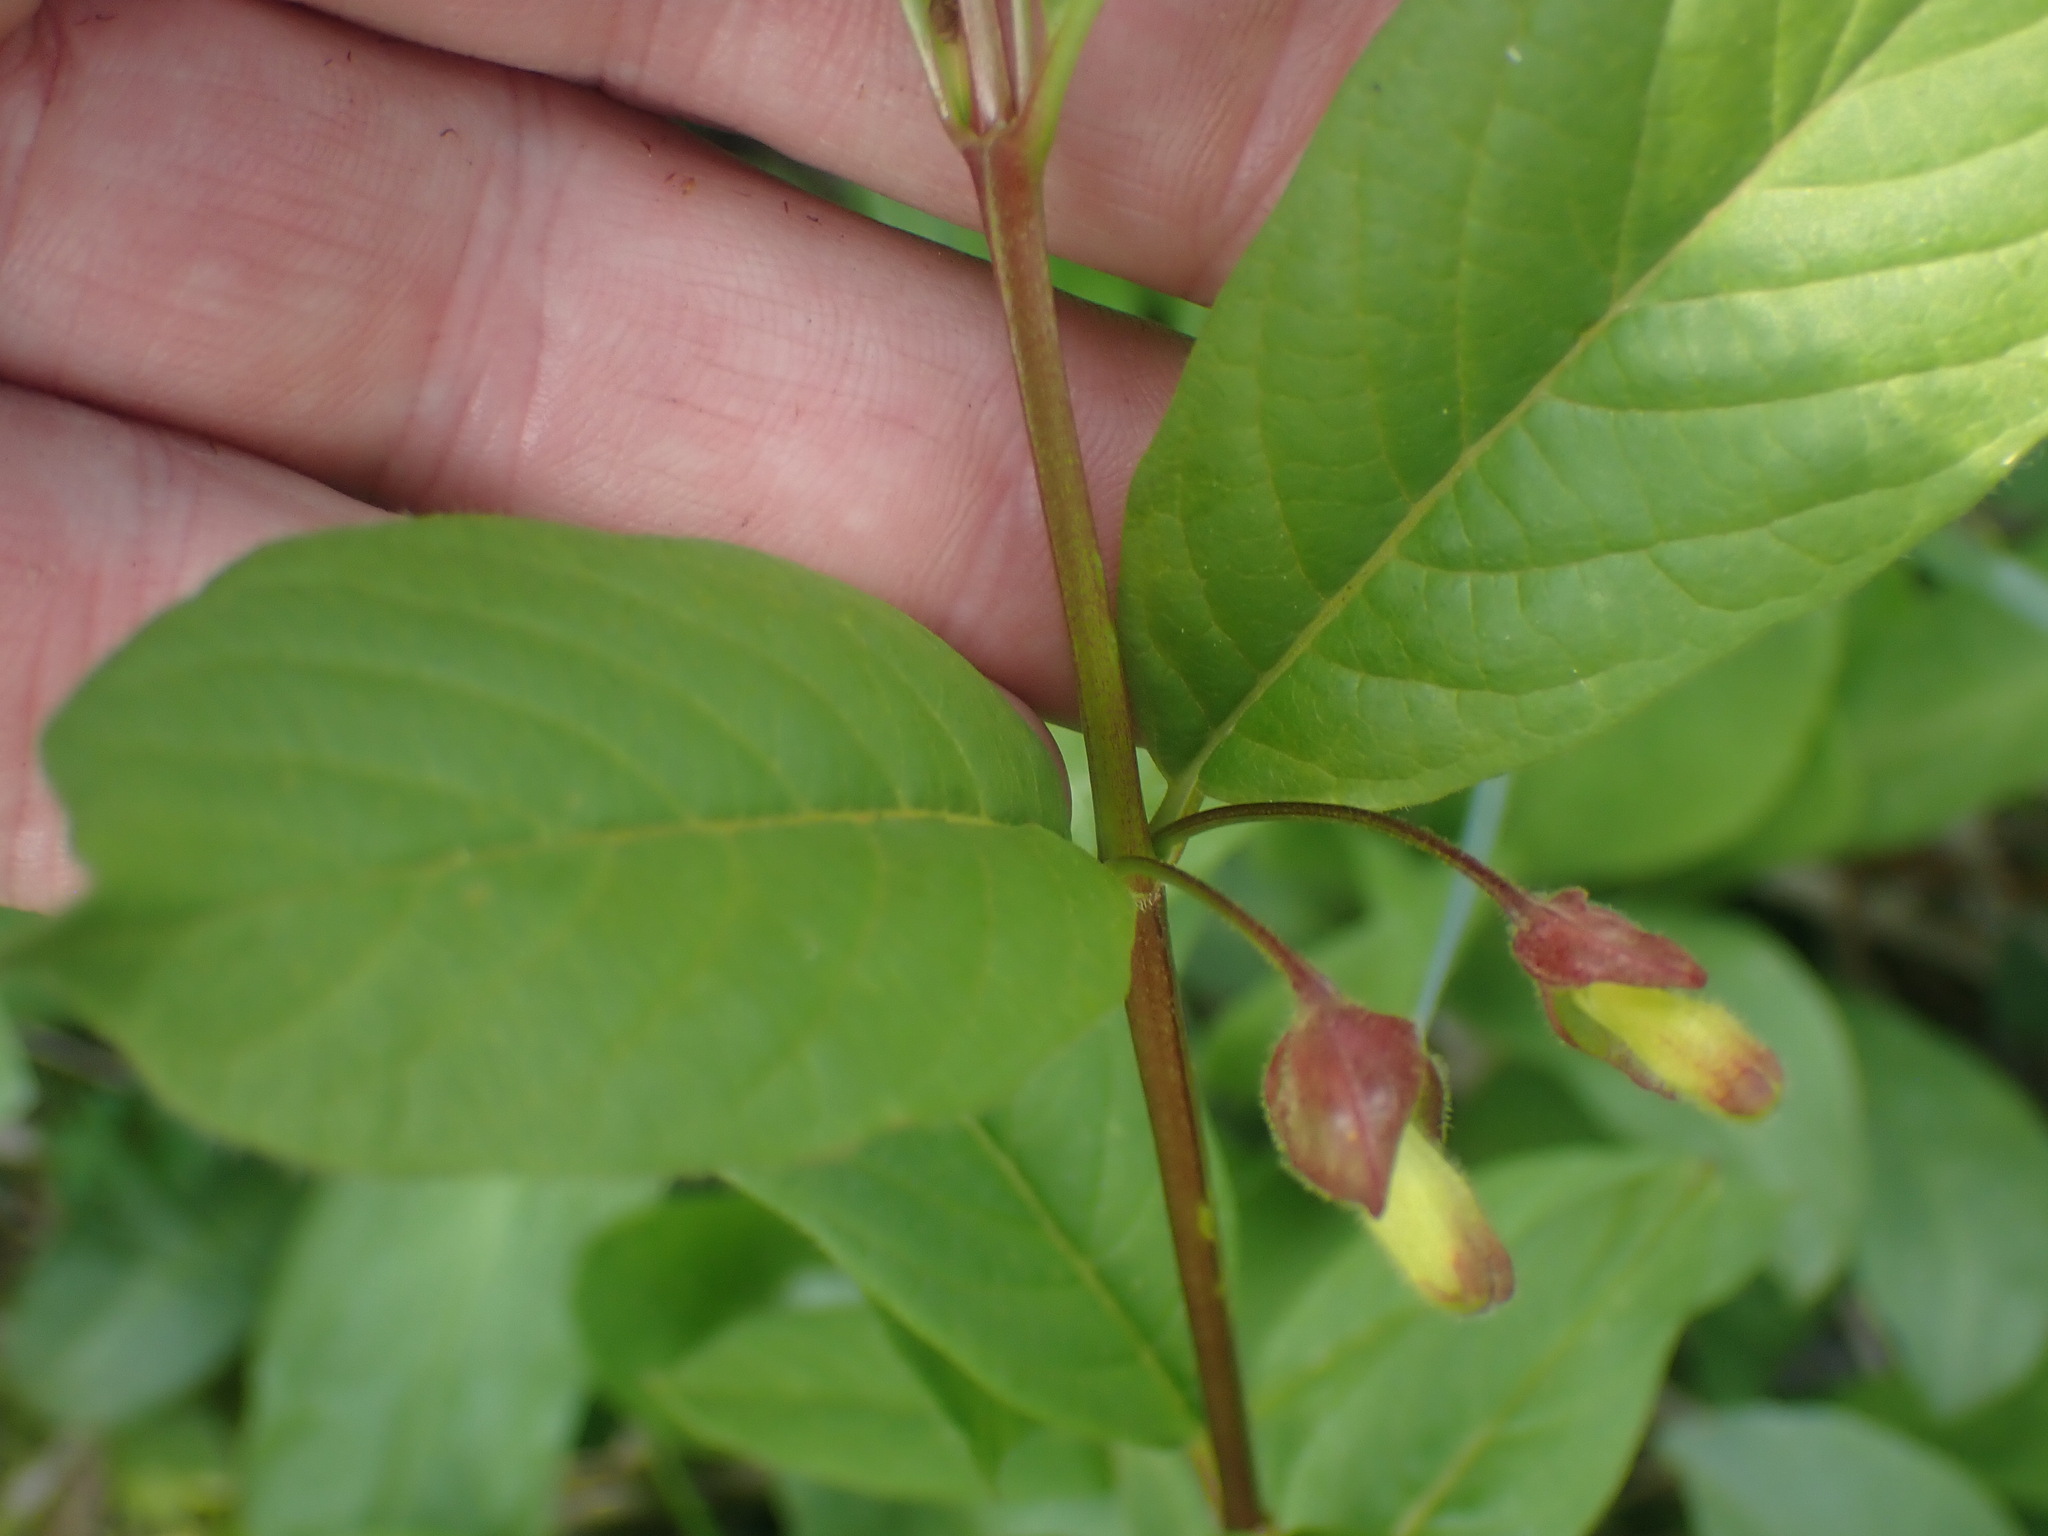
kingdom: Plantae
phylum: Tracheophyta
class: Magnoliopsida
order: Dipsacales
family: Caprifoliaceae
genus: Lonicera
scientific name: Lonicera involucrata
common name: Californian honeysuckle
